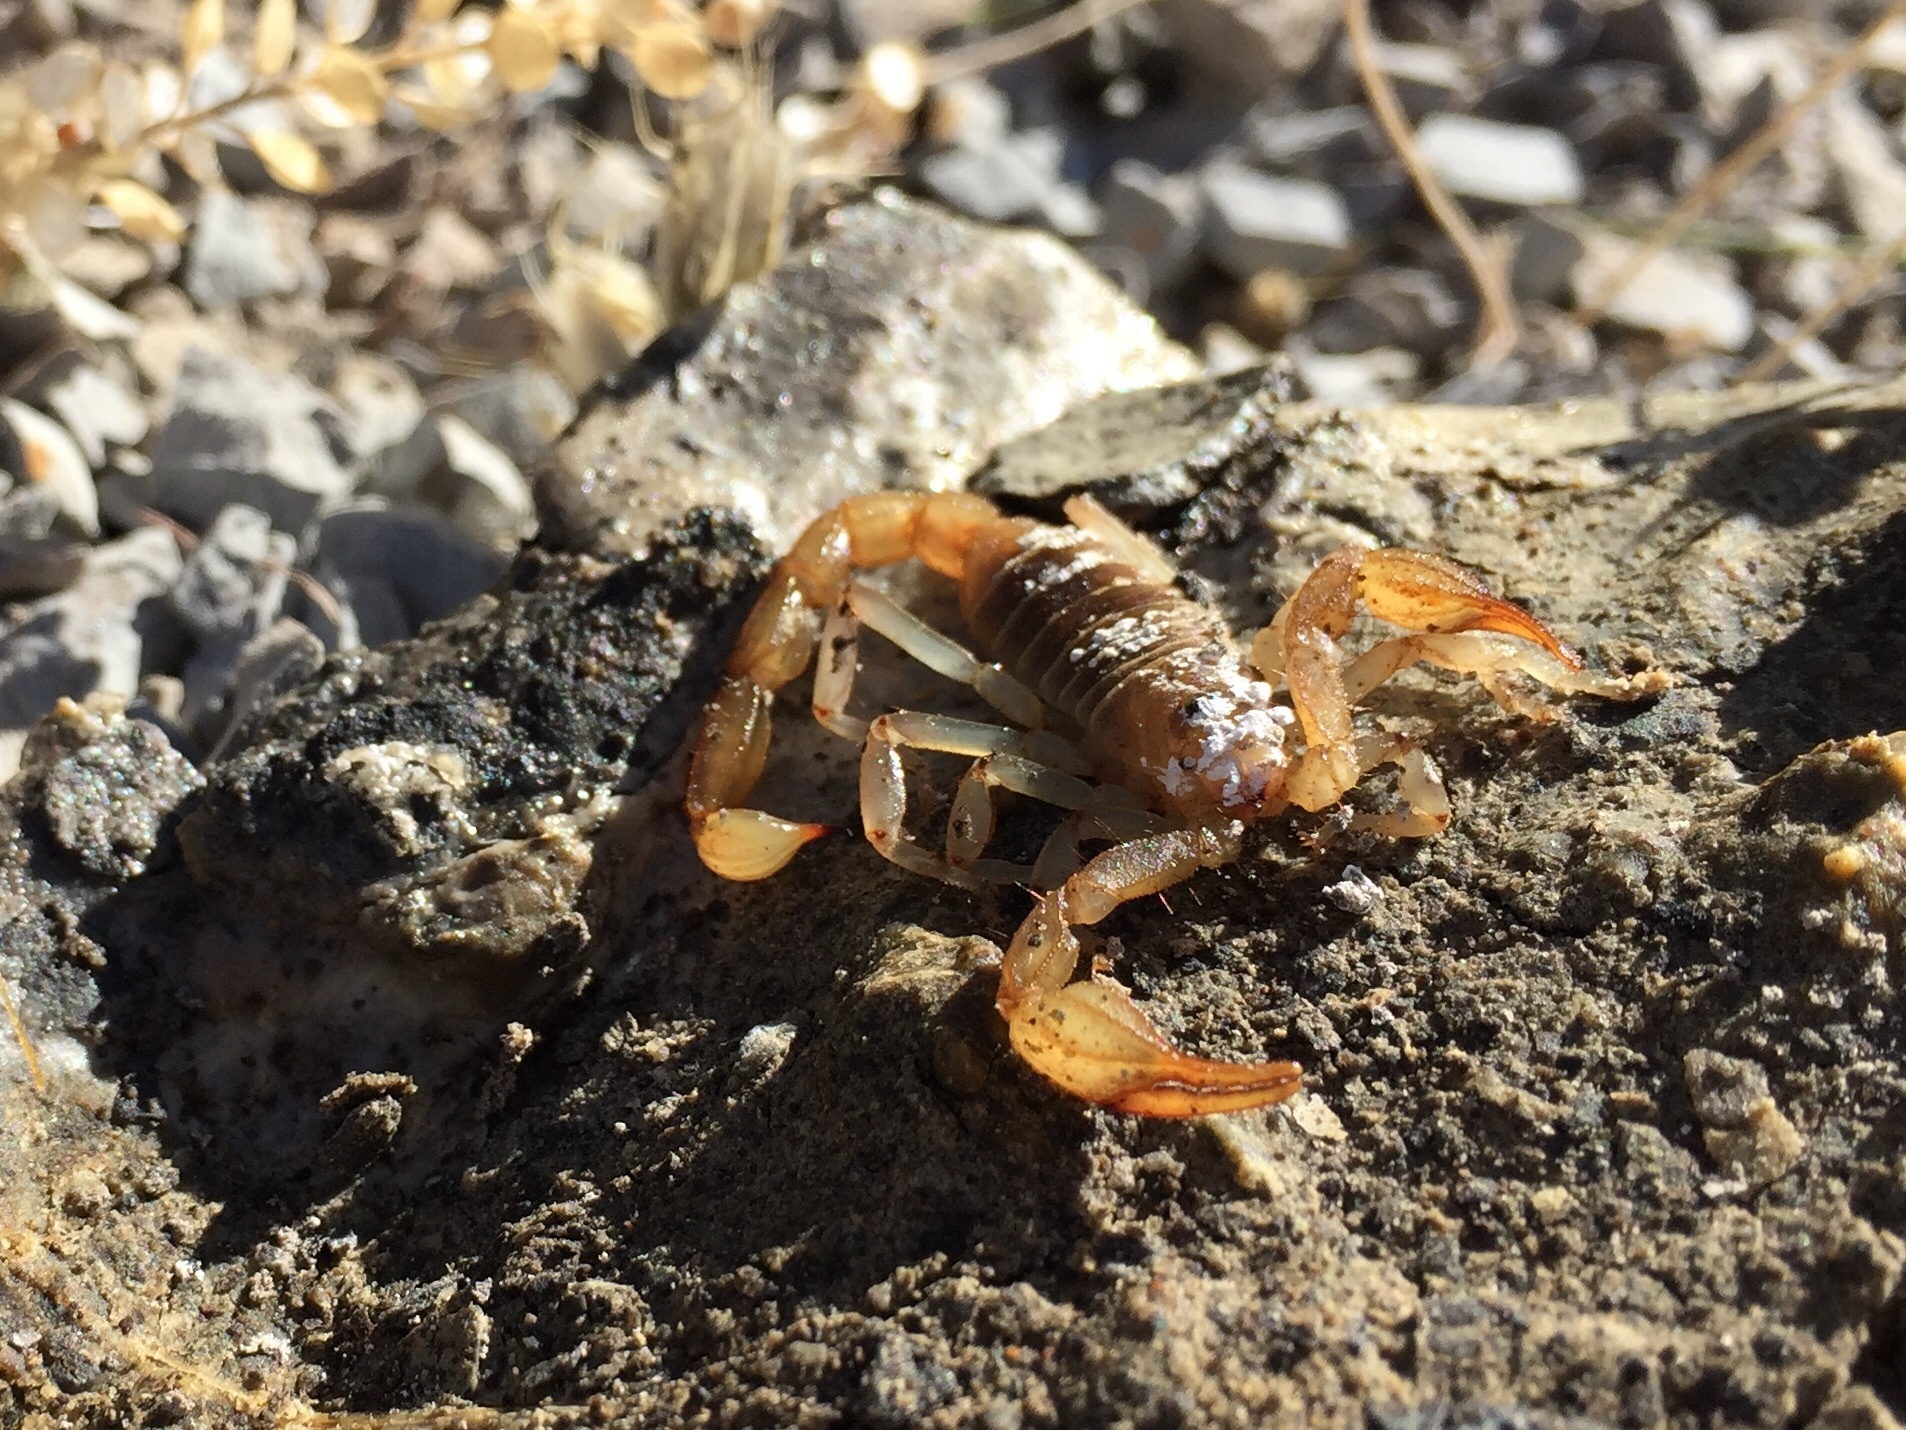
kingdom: Animalia
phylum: Arthropoda
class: Arachnida
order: Scorpiones
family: Vaejovidae
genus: Paruroctonus
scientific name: Paruroctonus boreus
